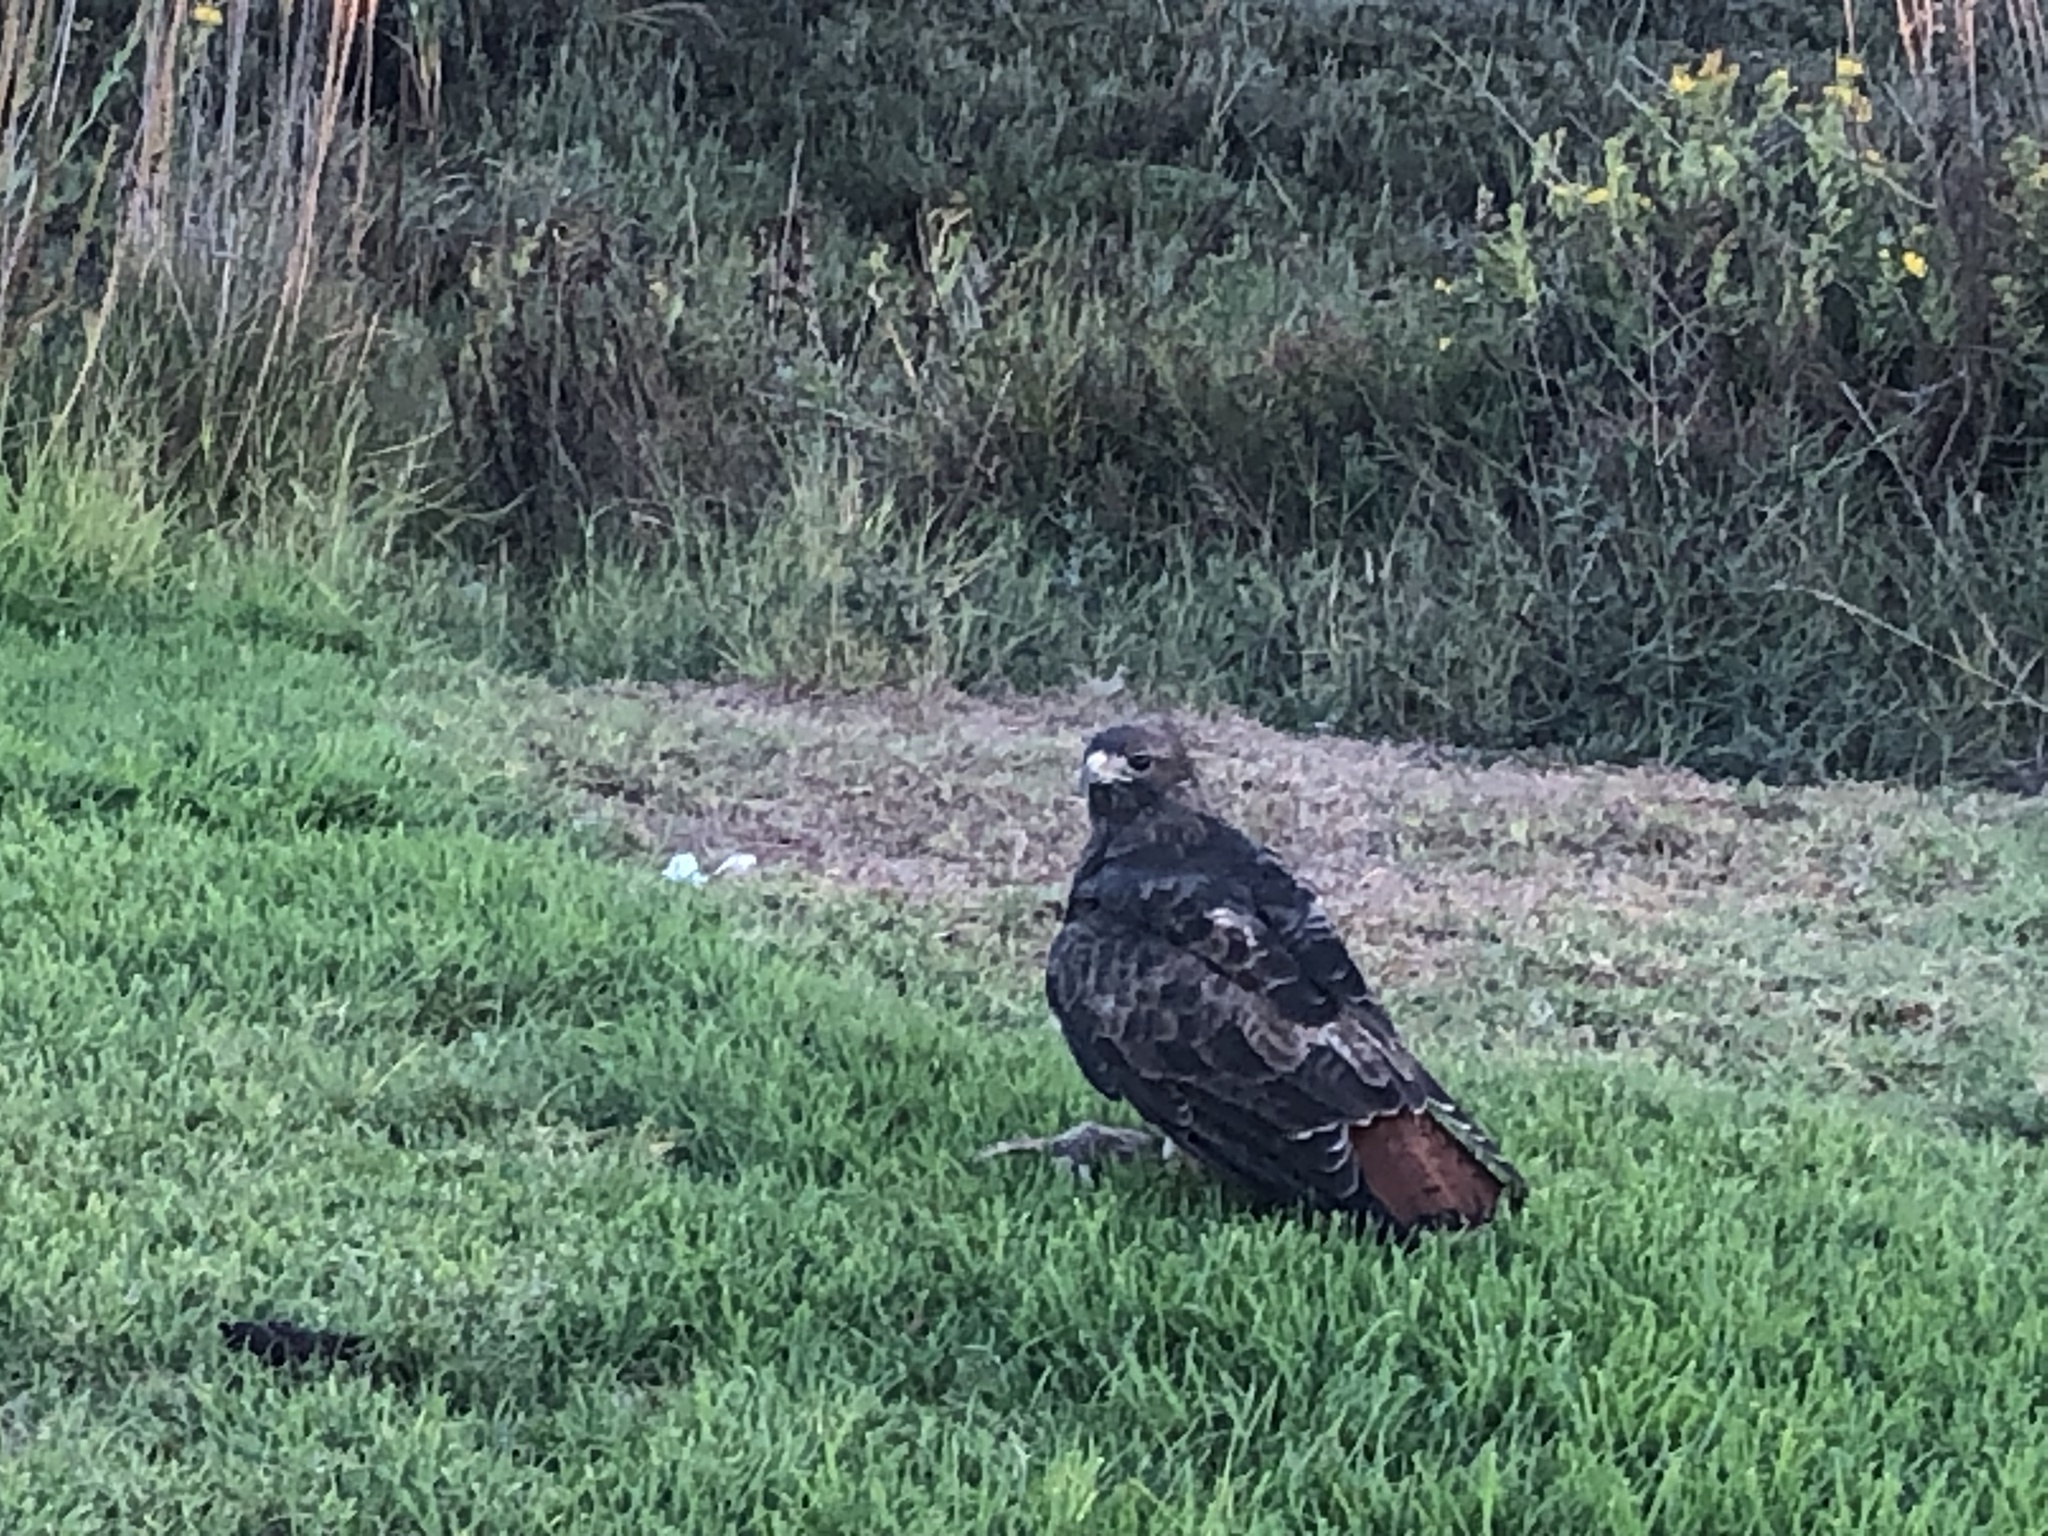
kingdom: Animalia
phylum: Chordata
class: Aves
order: Accipitriformes
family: Accipitridae
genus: Buteo
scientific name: Buteo jamaicensis
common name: Red-tailed hawk
